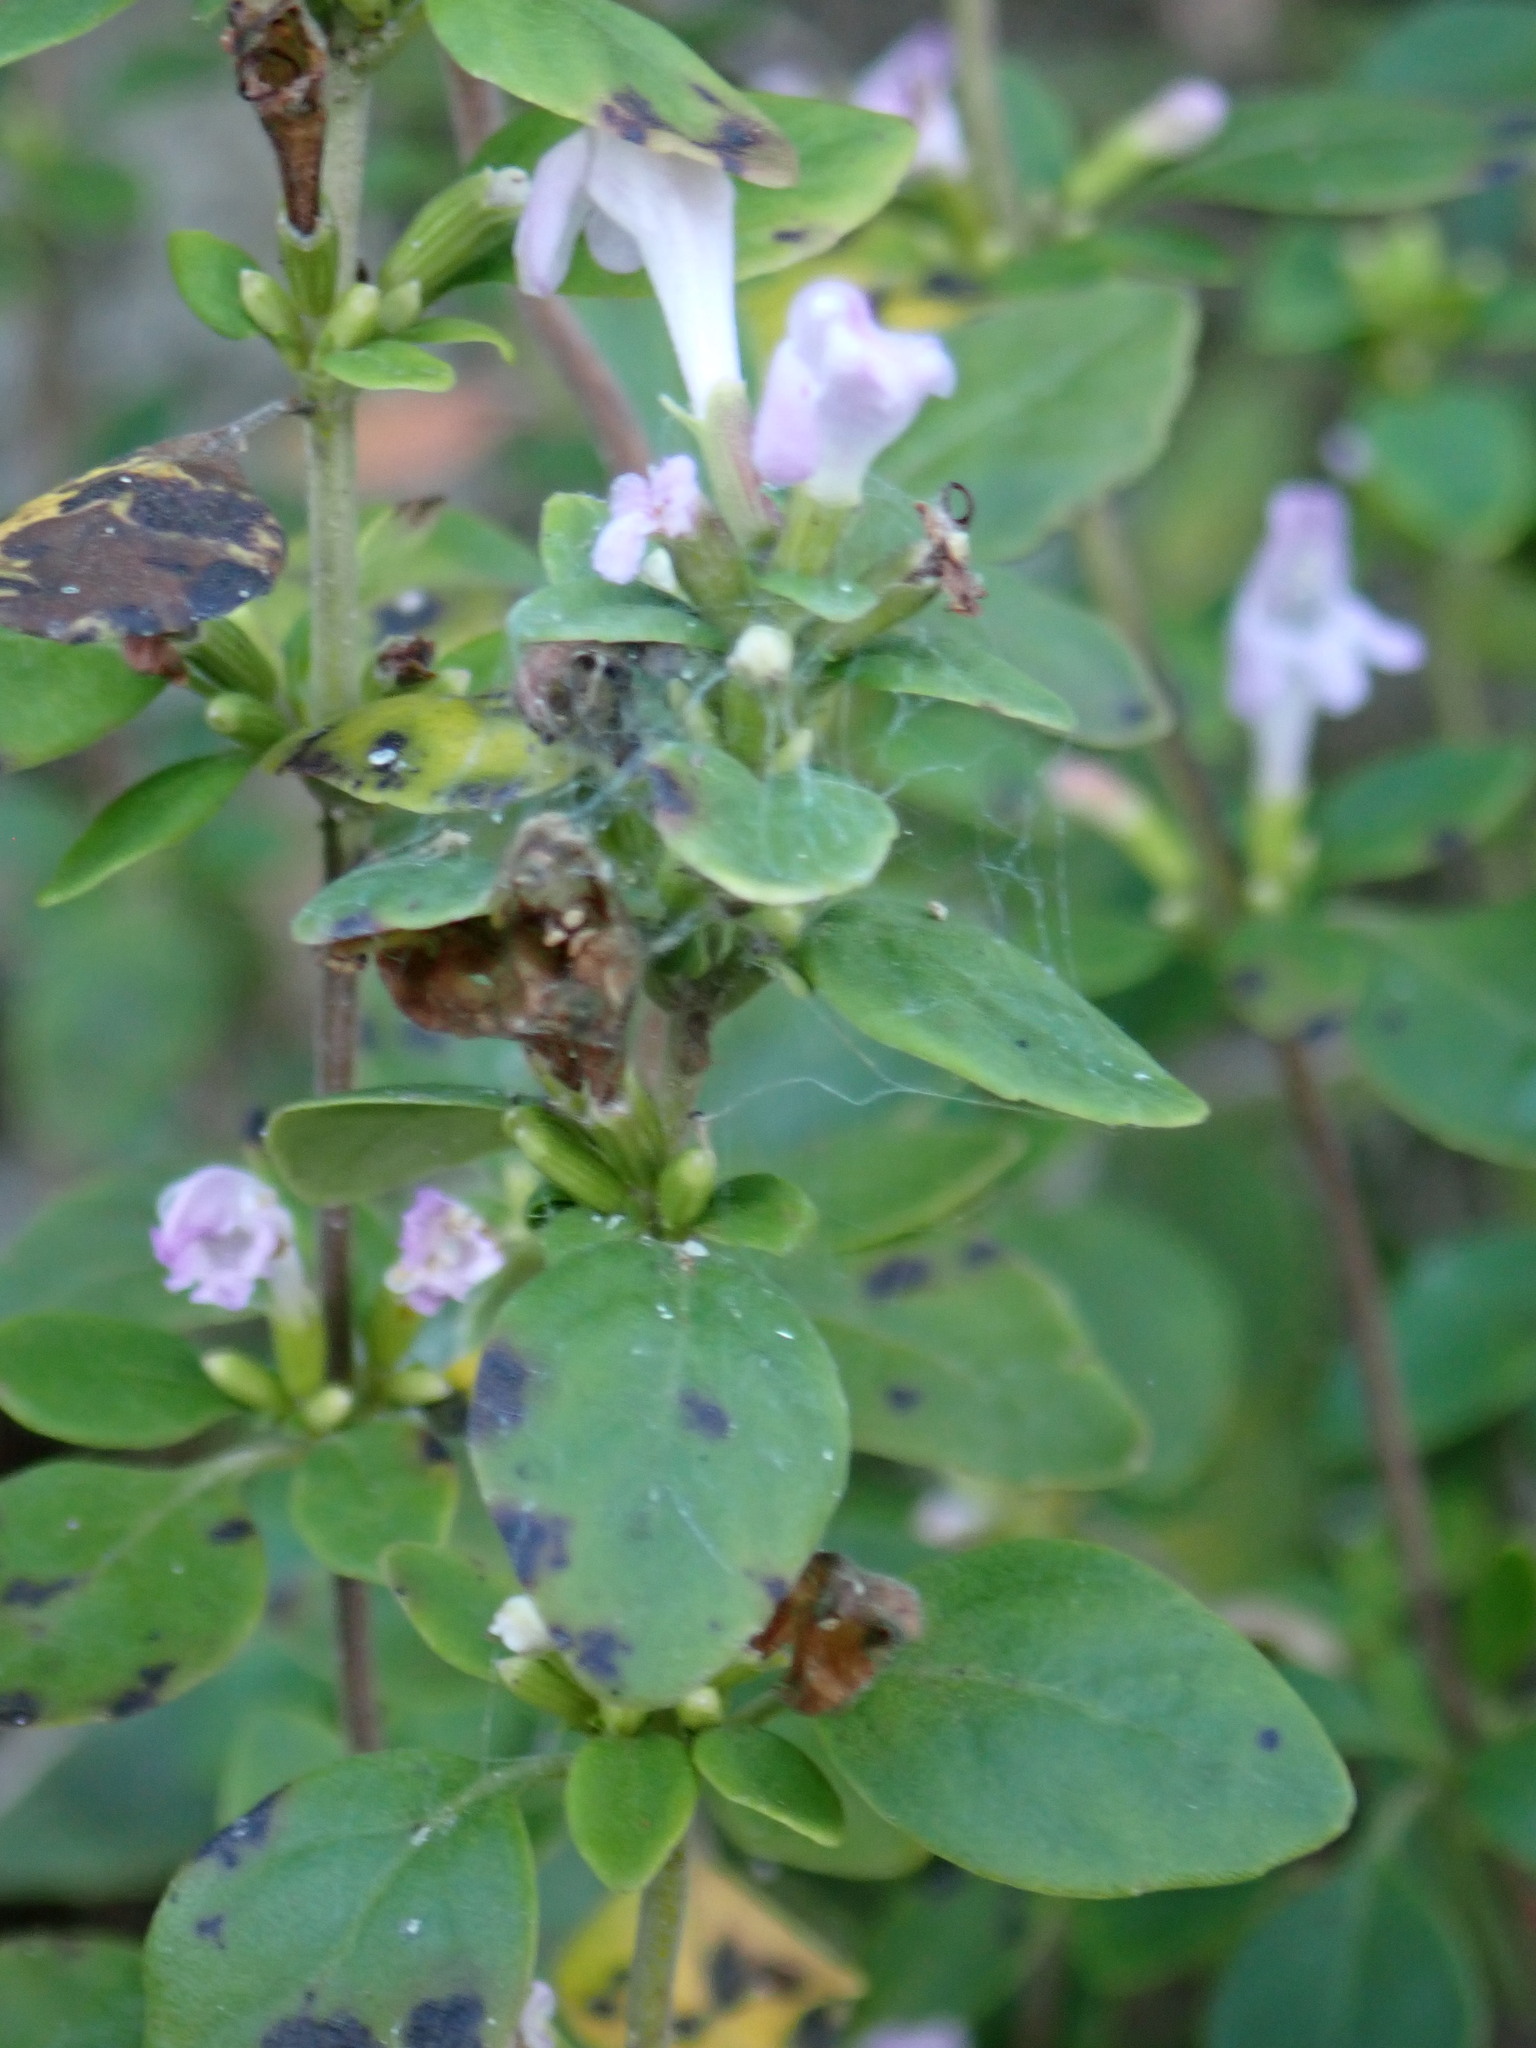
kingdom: Plantae
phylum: Tracheophyta
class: Magnoliopsida
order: Lamiales
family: Lamiaceae
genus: Clinopodium
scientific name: Clinopodium carolinianum
